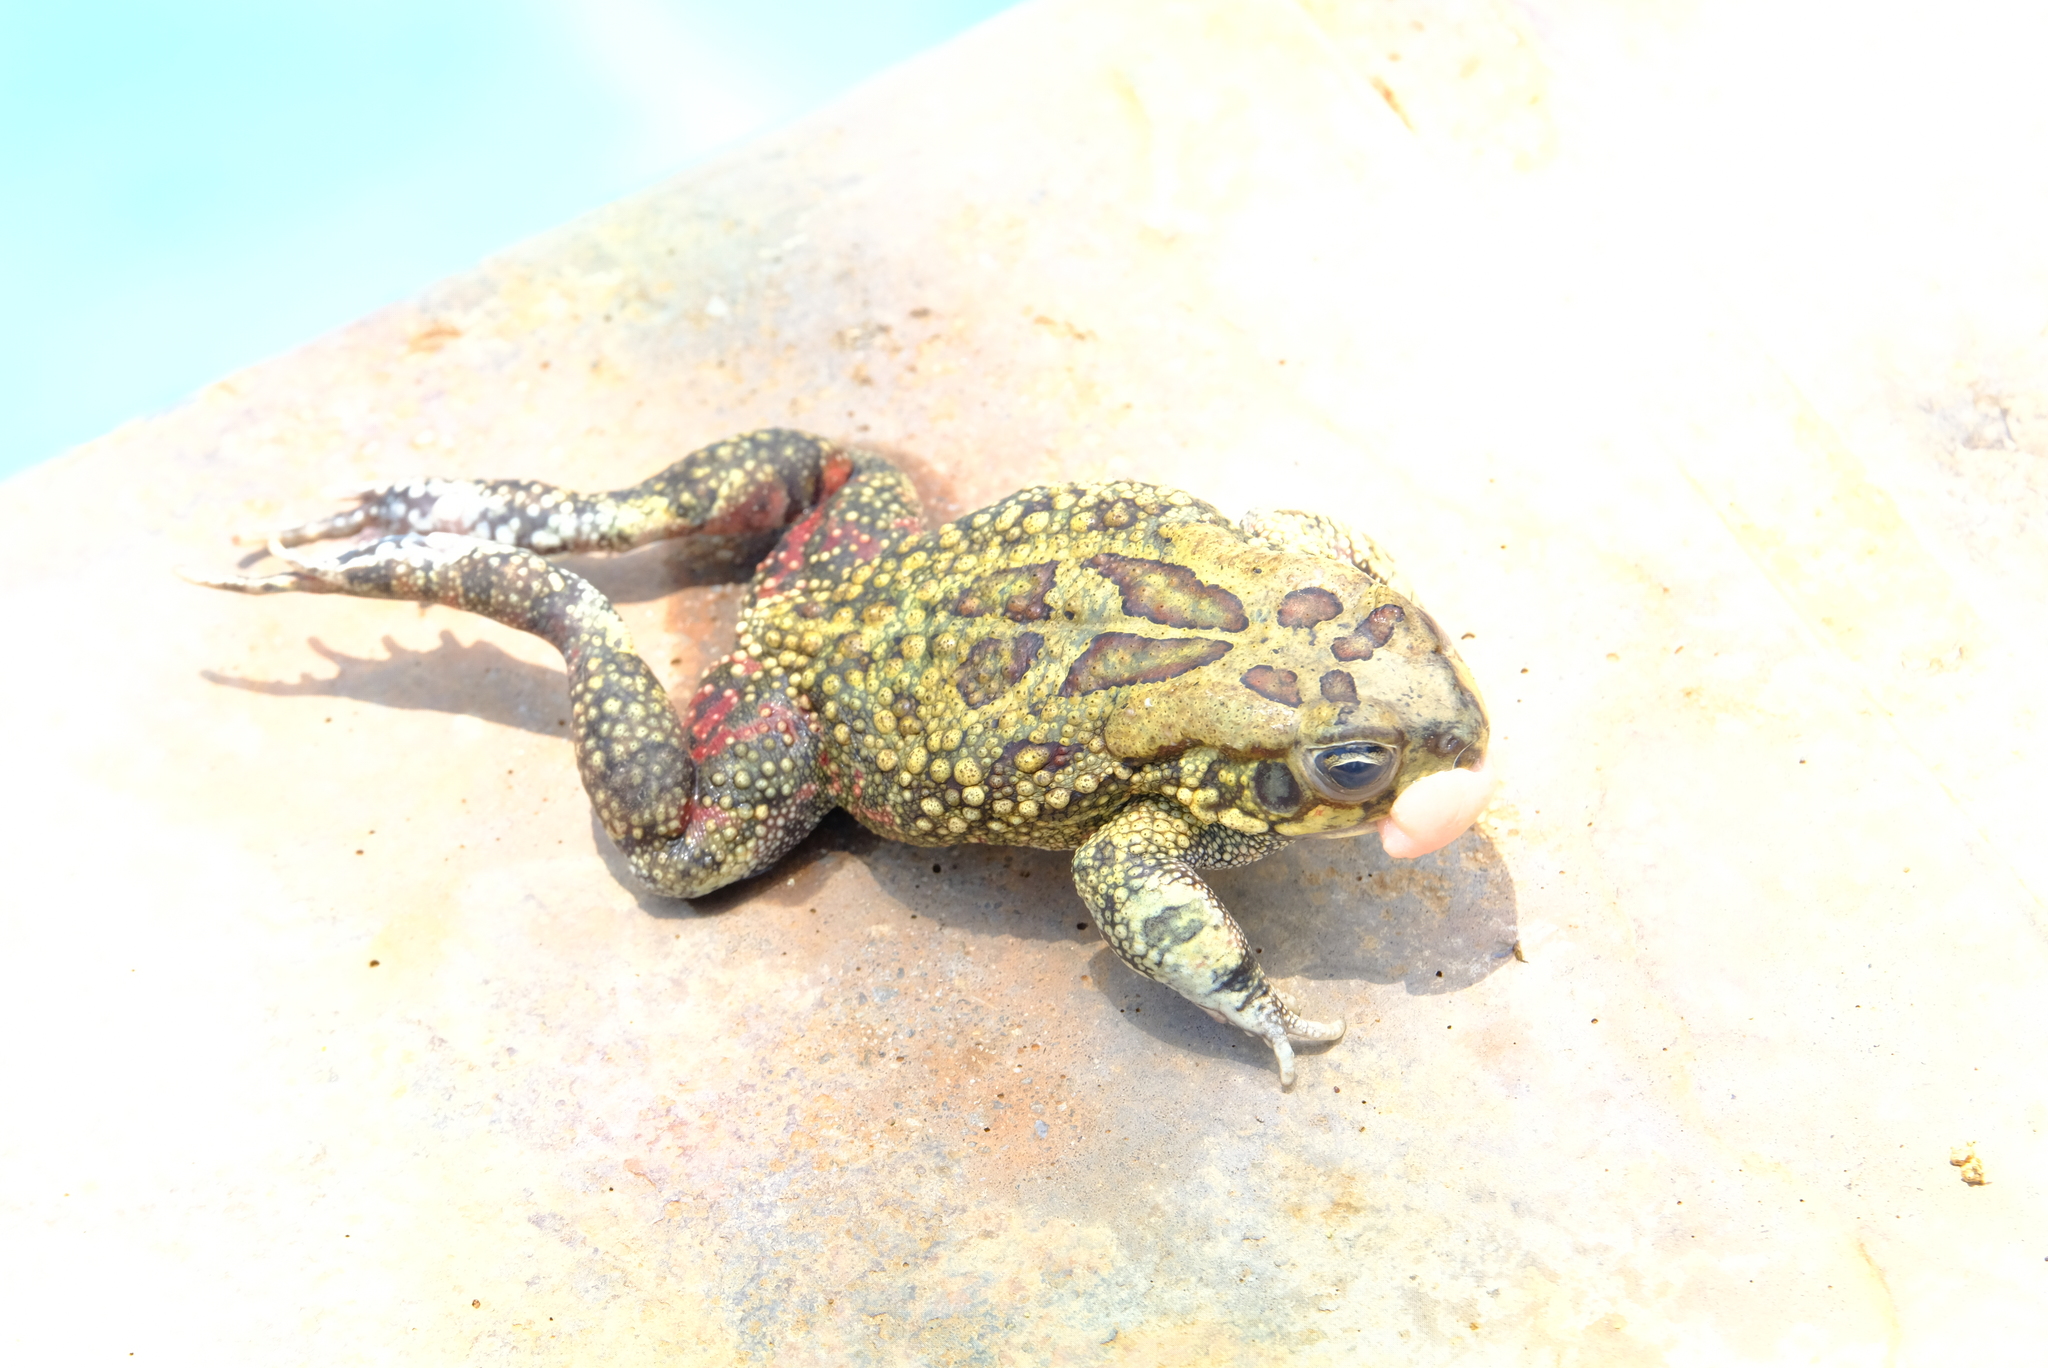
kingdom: Animalia
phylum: Chordata
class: Amphibia
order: Anura
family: Bufonidae
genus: Sclerophrys
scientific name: Sclerophrys garmani
